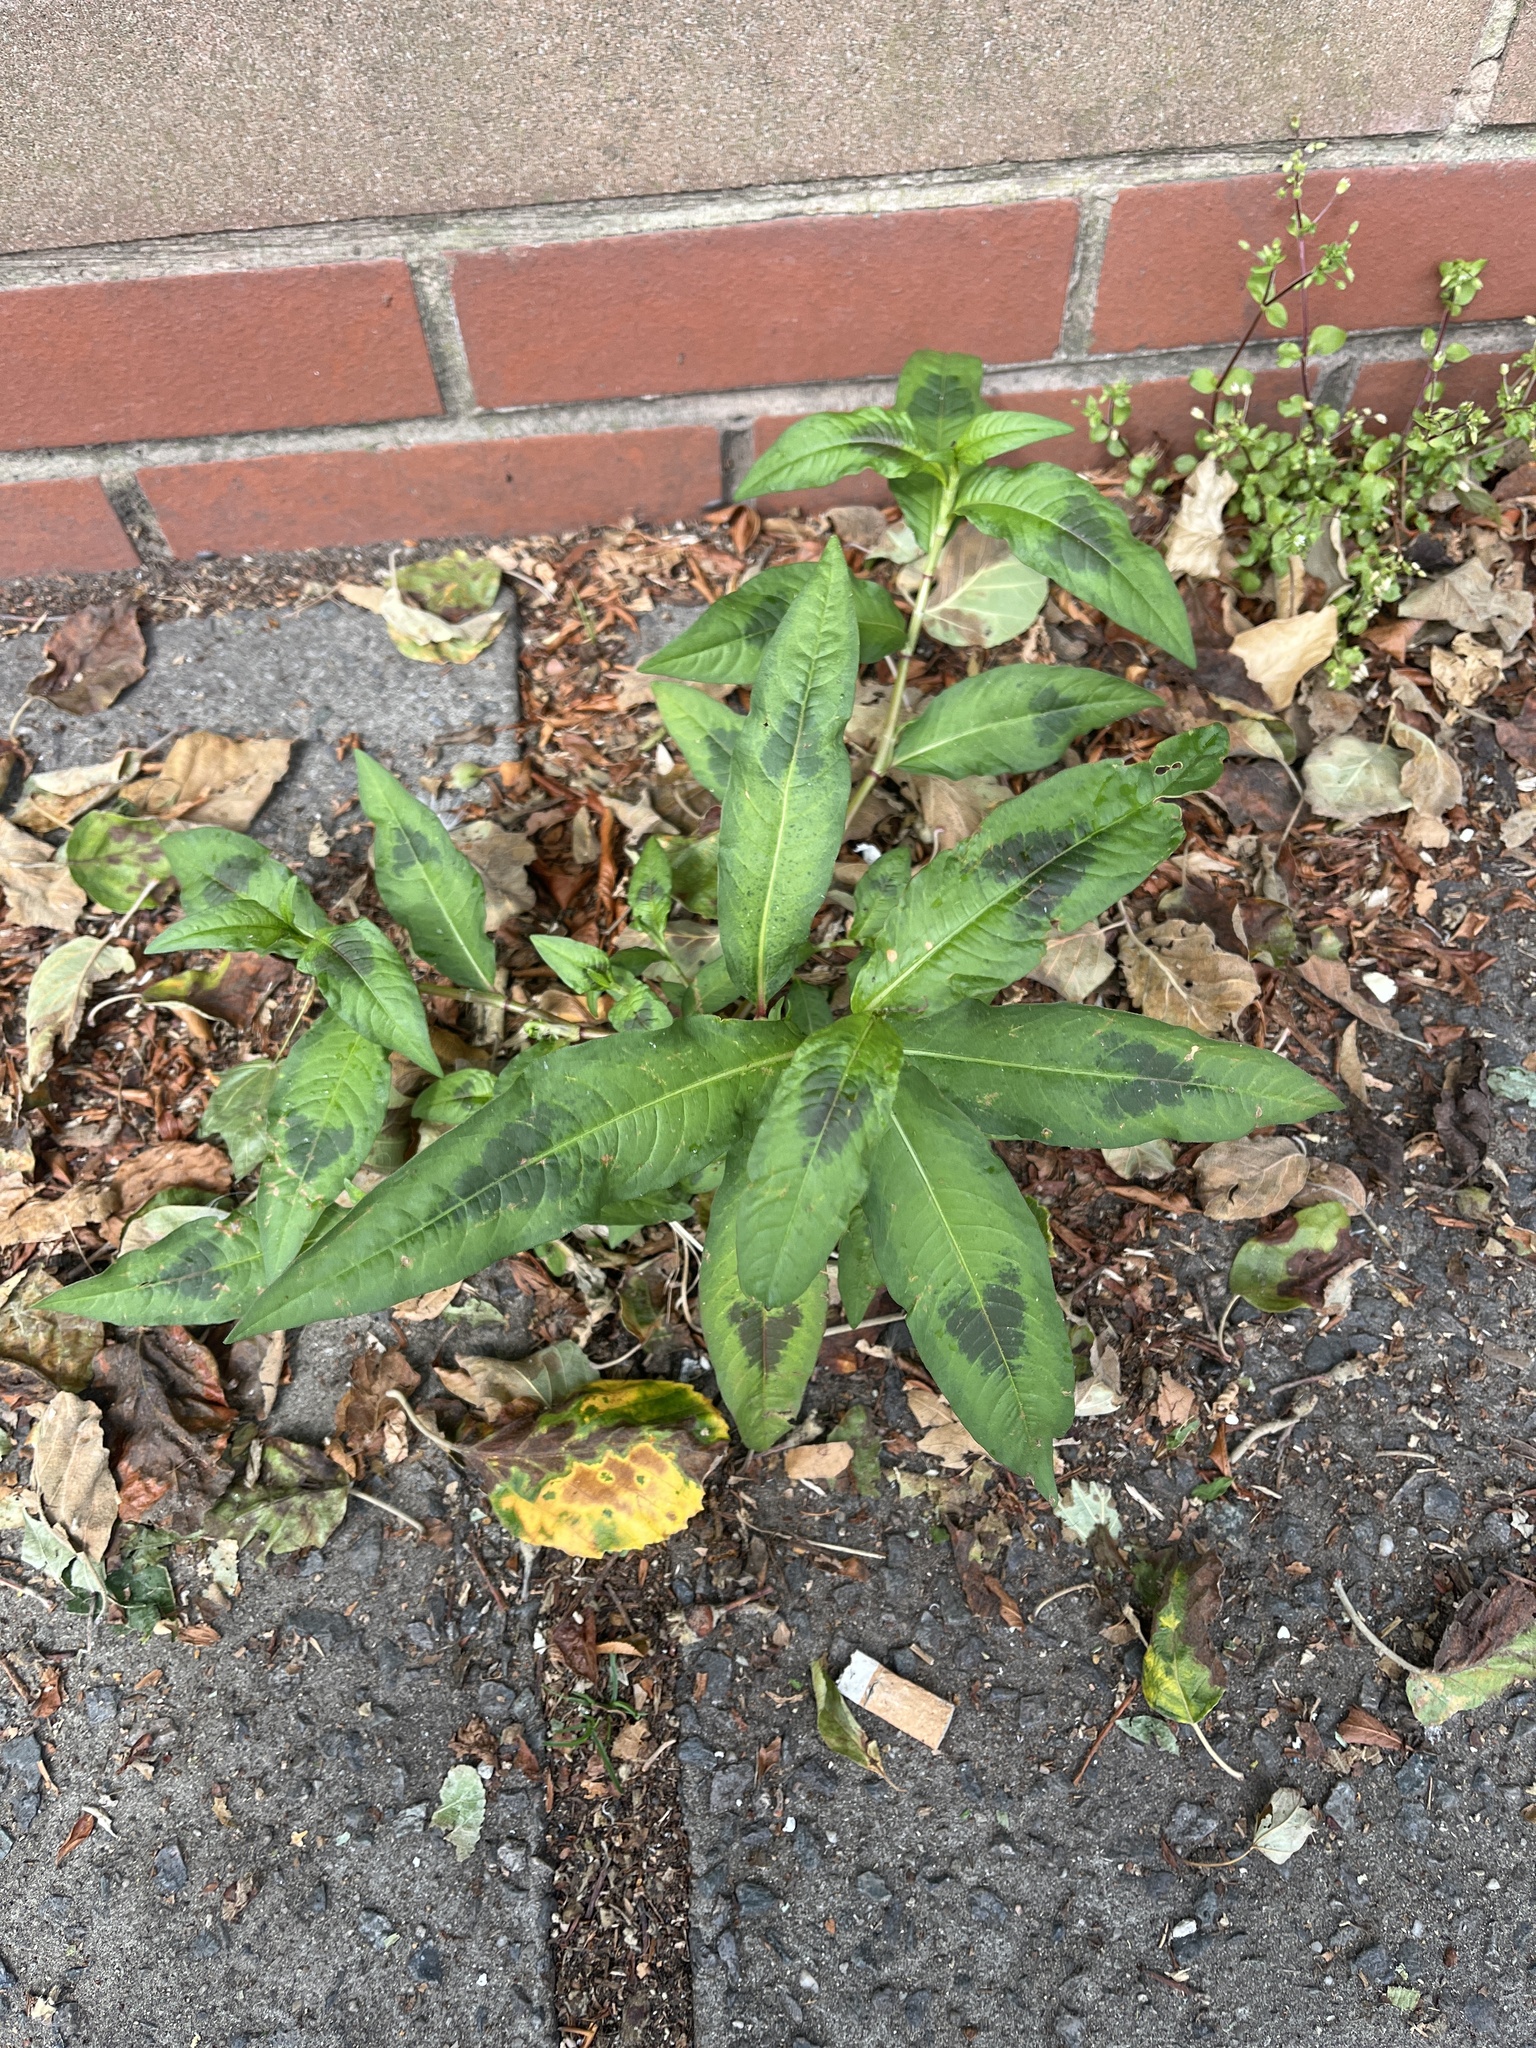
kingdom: Plantae
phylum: Tracheophyta
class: Magnoliopsida
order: Caryophyllales
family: Polygonaceae
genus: Persicaria
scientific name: Persicaria maculosa
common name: Redshank
